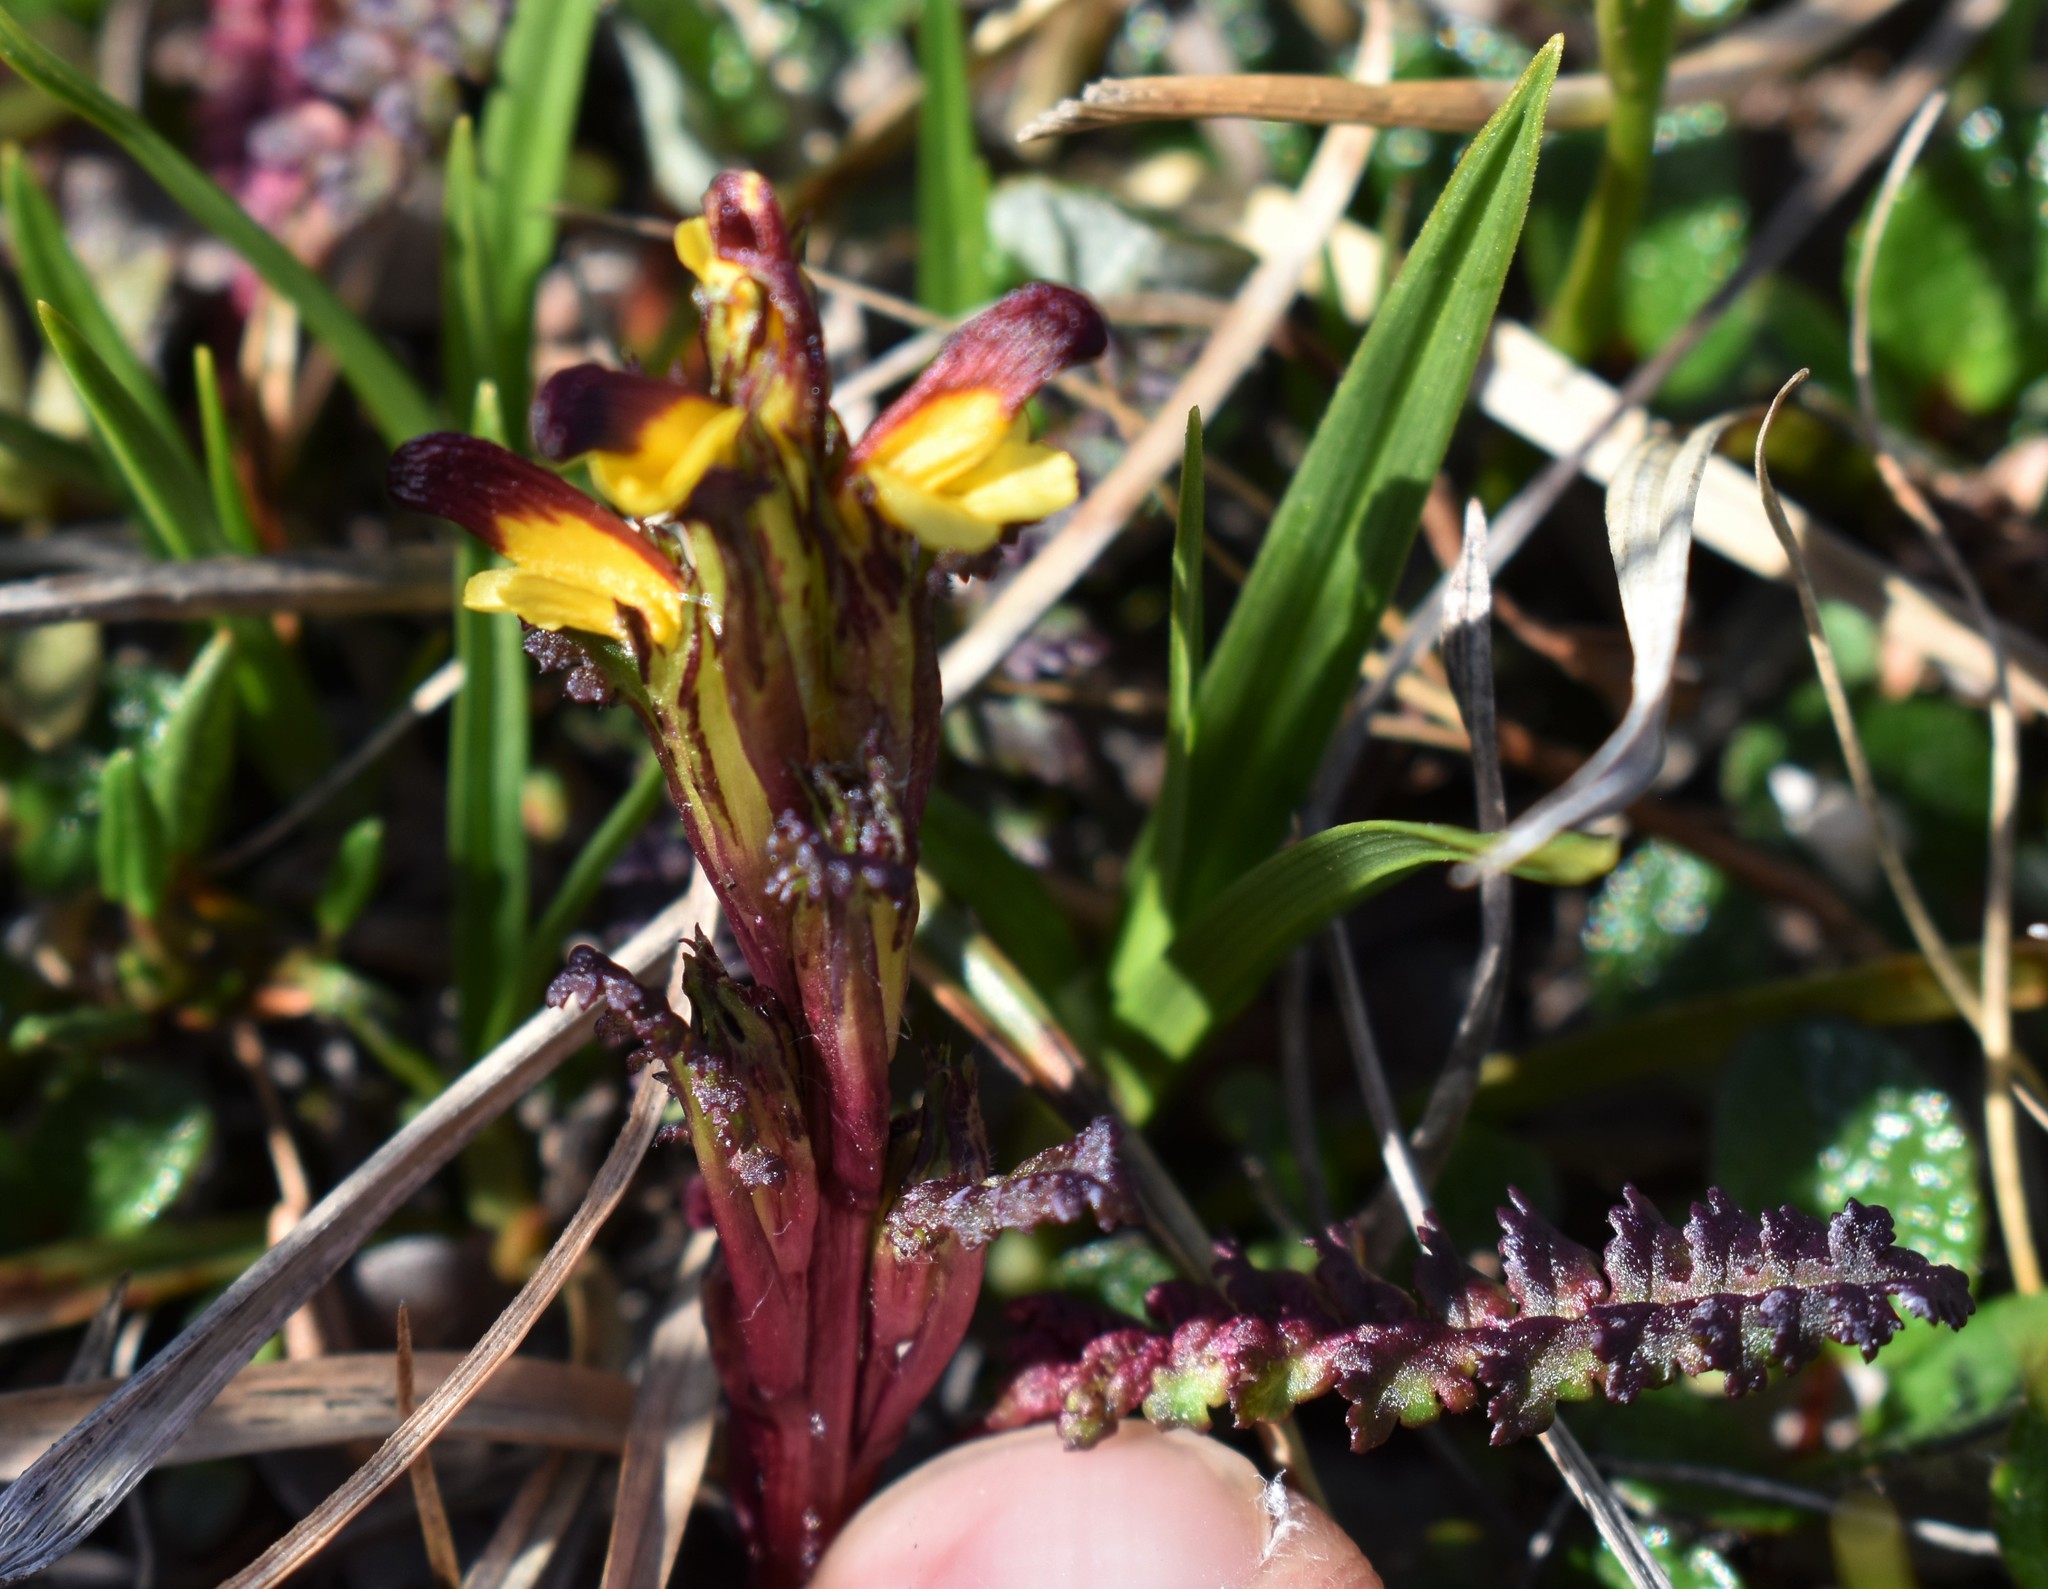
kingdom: Plantae
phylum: Tracheophyta
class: Magnoliopsida
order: Lamiales
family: Orobanchaceae
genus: Pedicularis
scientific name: Pedicularis flammea
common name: Flame-coloured lousewort
